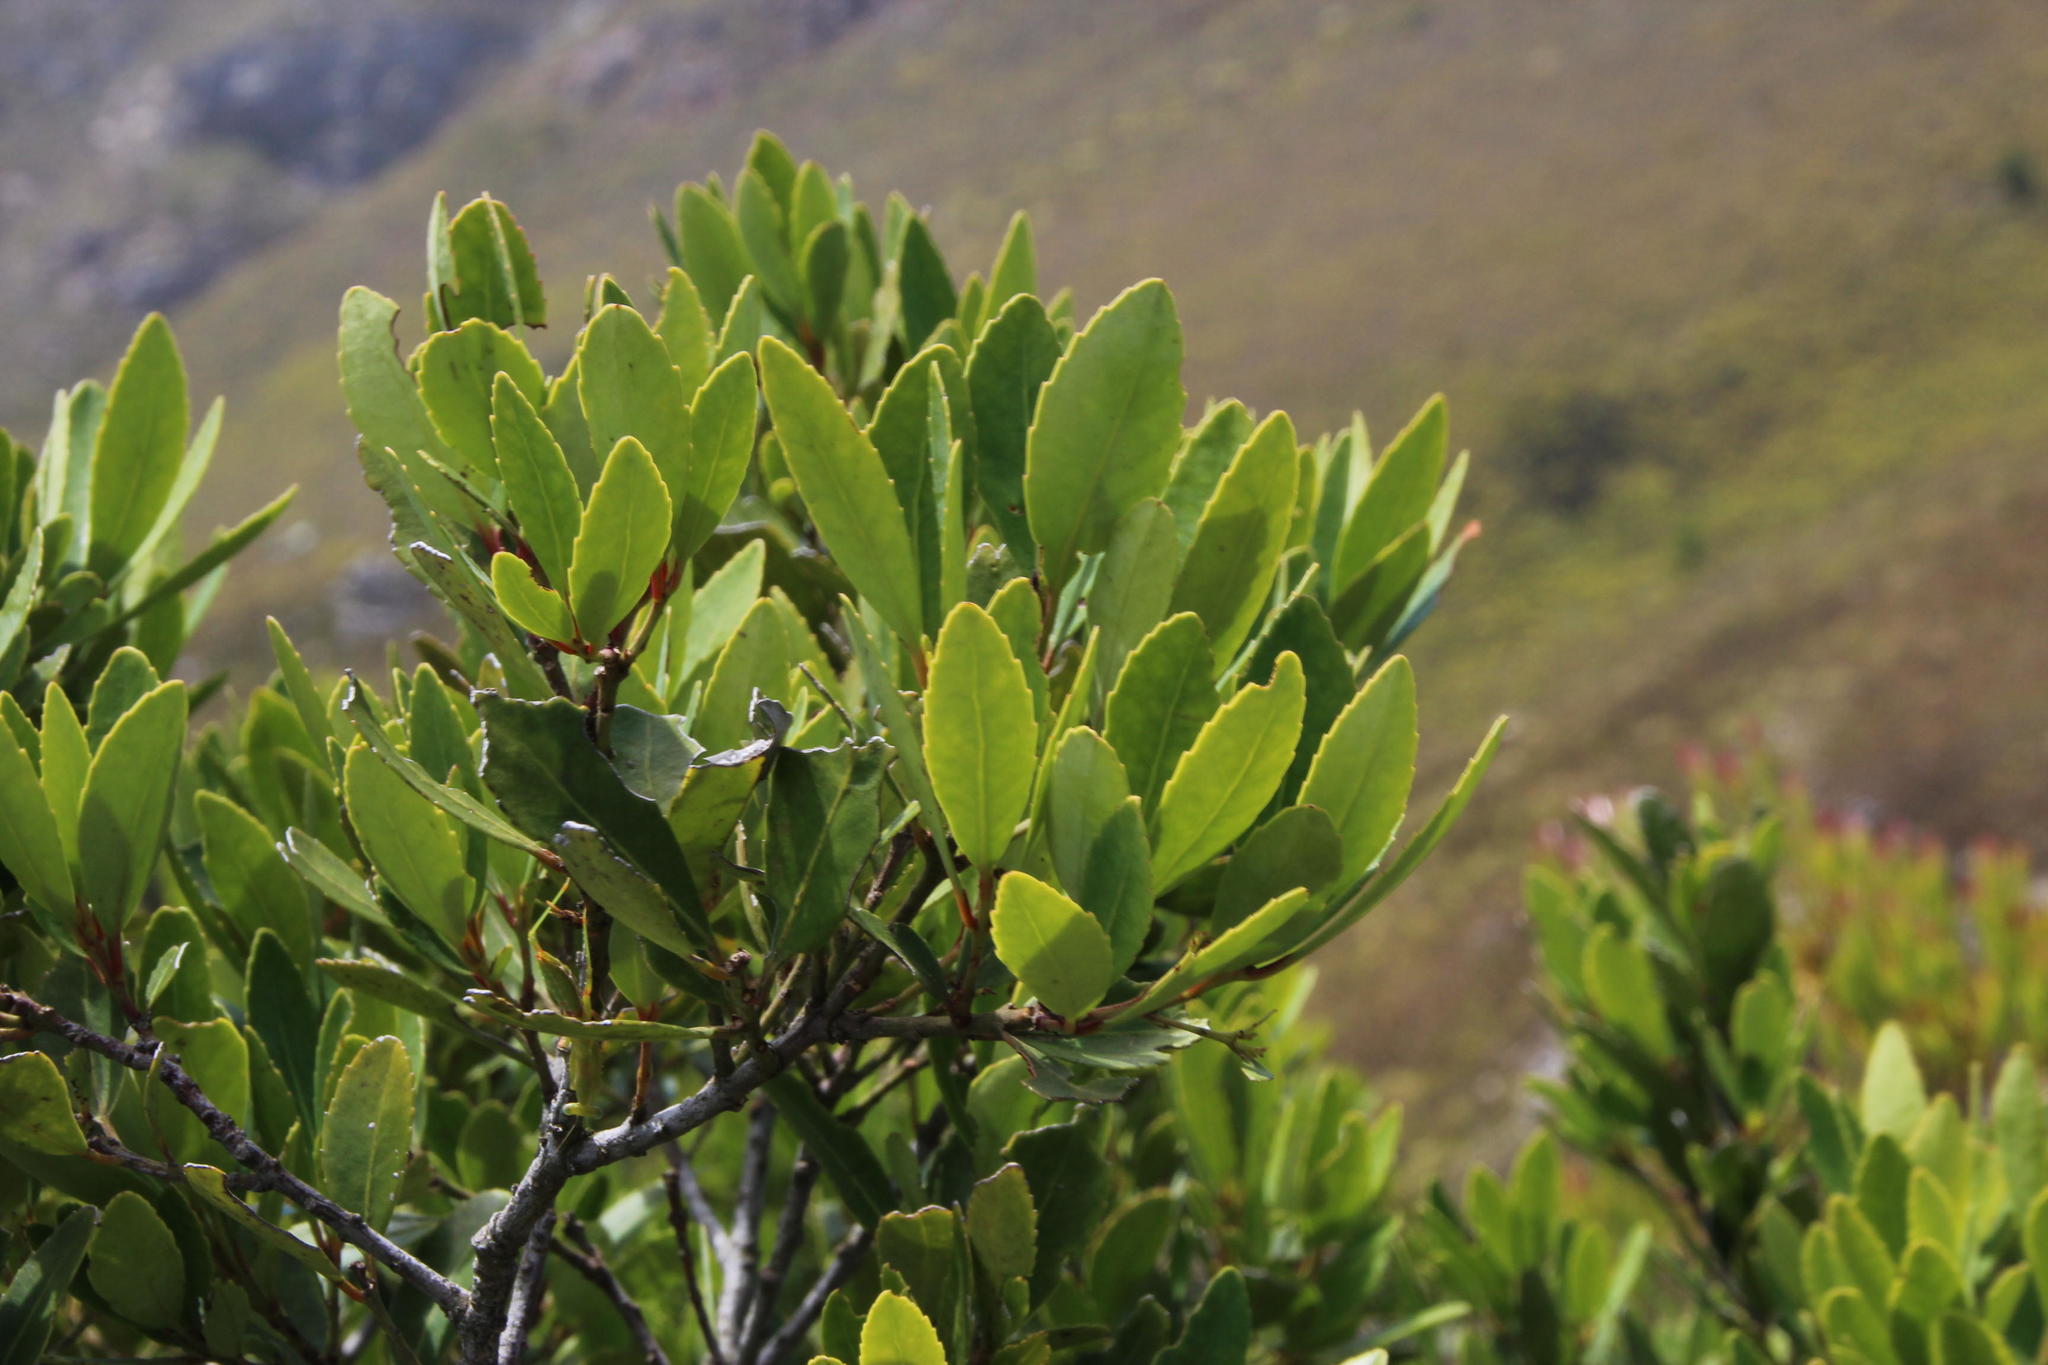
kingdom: Plantae
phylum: Tracheophyta
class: Magnoliopsida
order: Celastrales
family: Celastraceae
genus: Elaeodendron
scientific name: Elaeodendron schinoides
